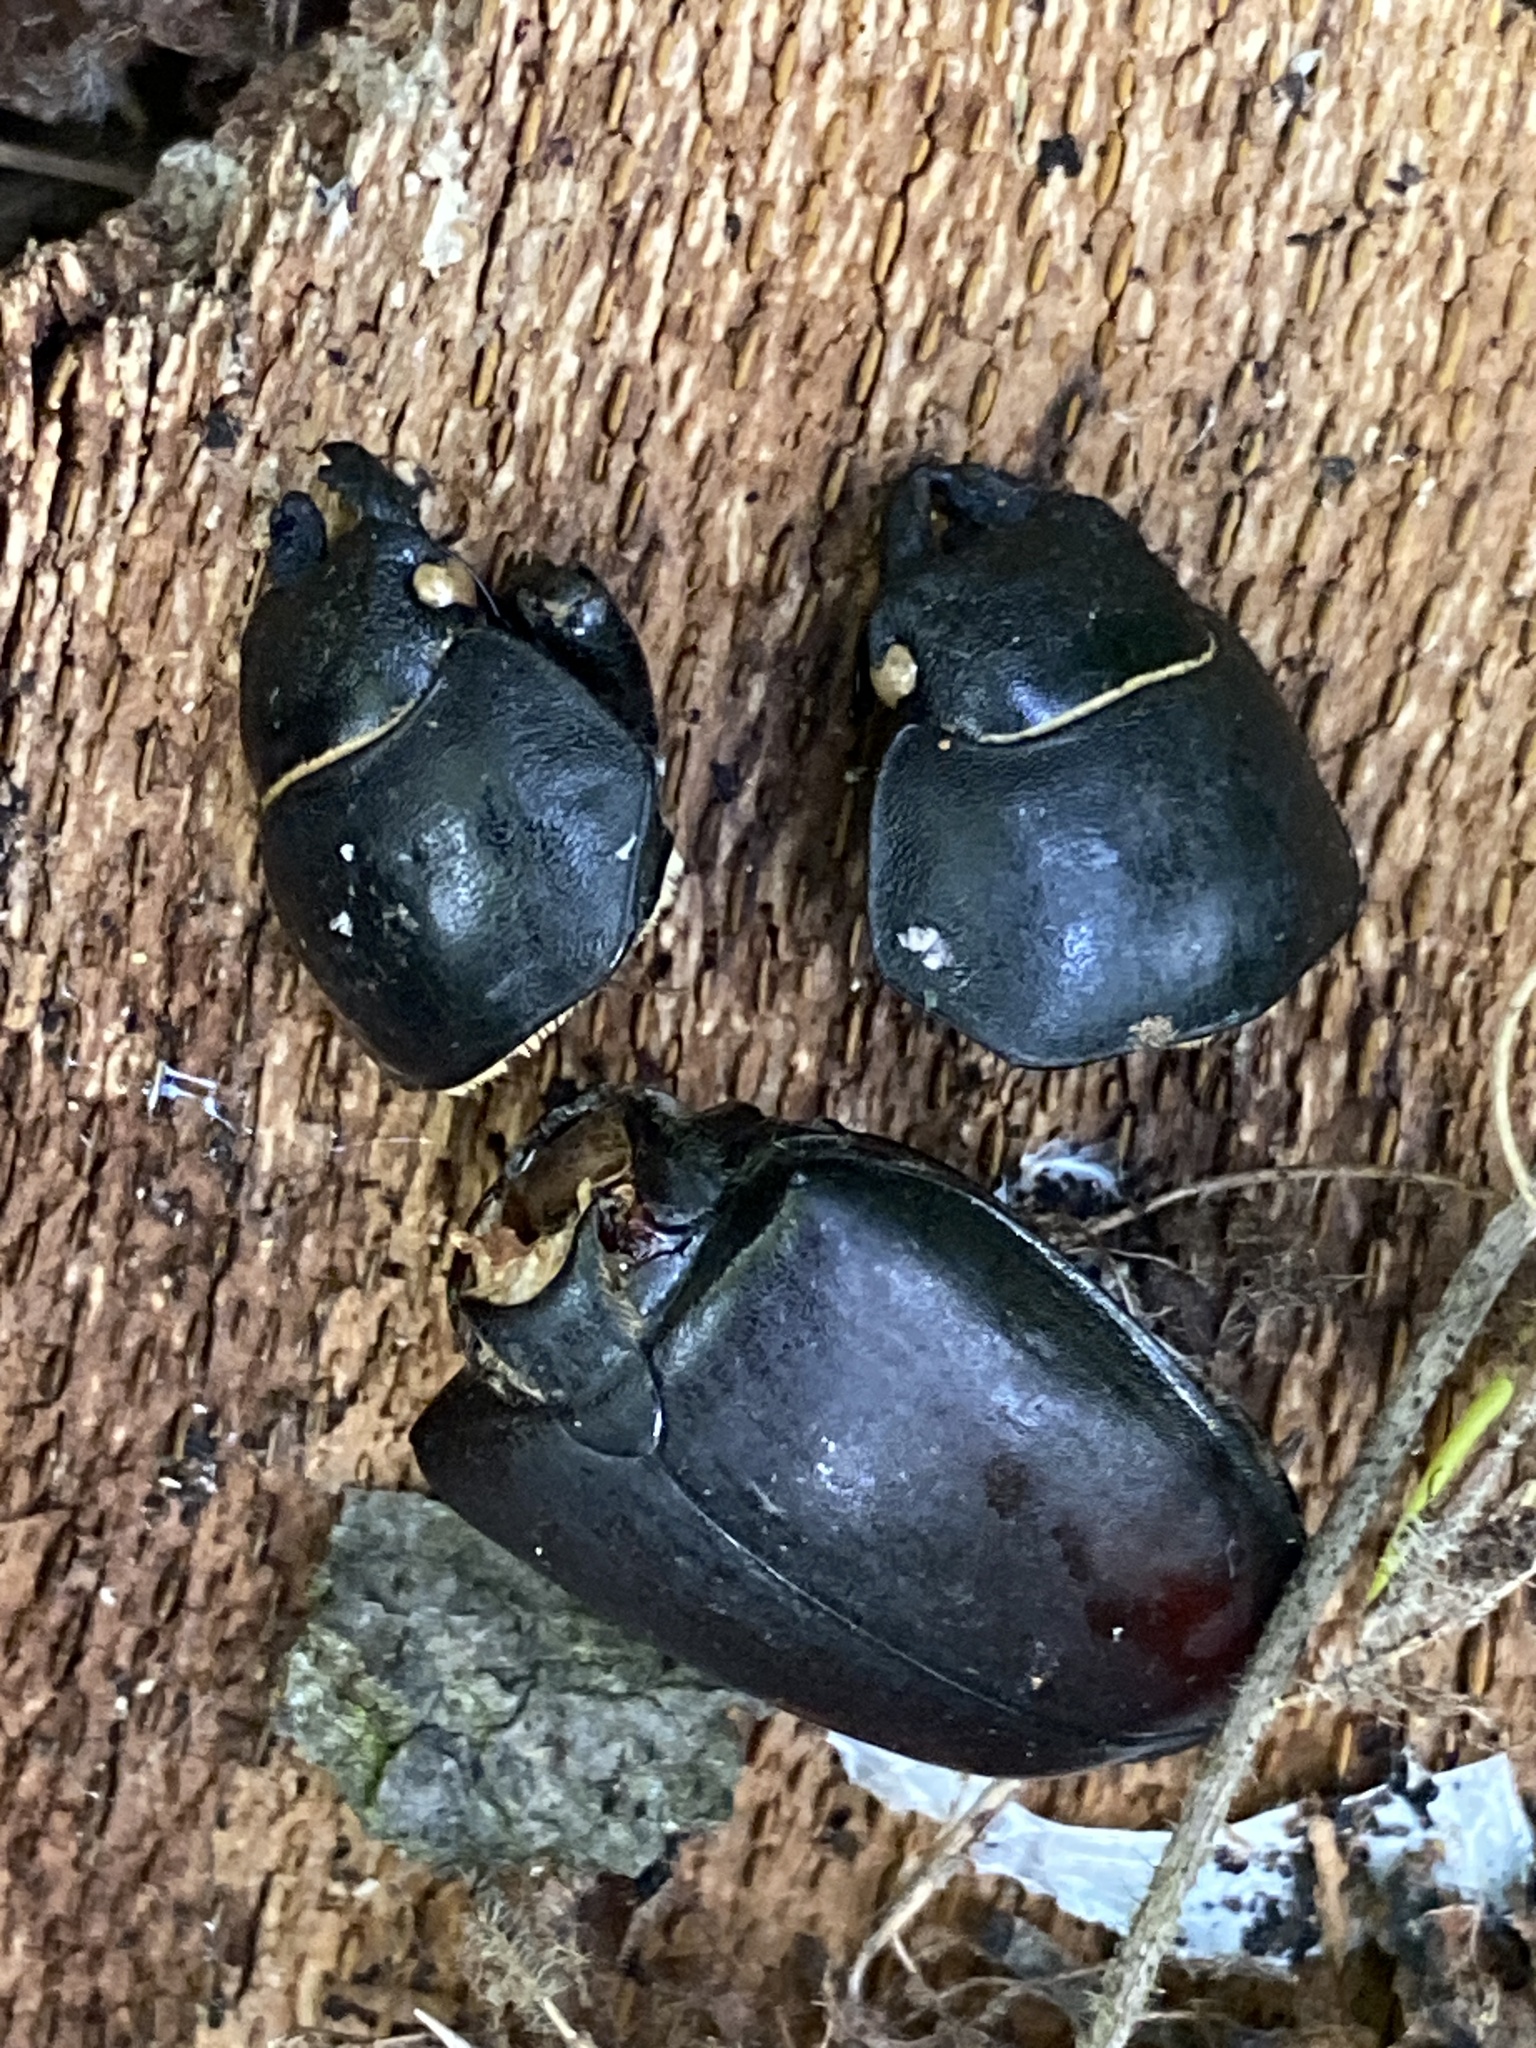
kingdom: Animalia
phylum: Arthropoda
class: Insecta
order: Coleoptera
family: Lucanidae
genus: Lucanus
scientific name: Lucanus cervus
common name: Stag beetle
